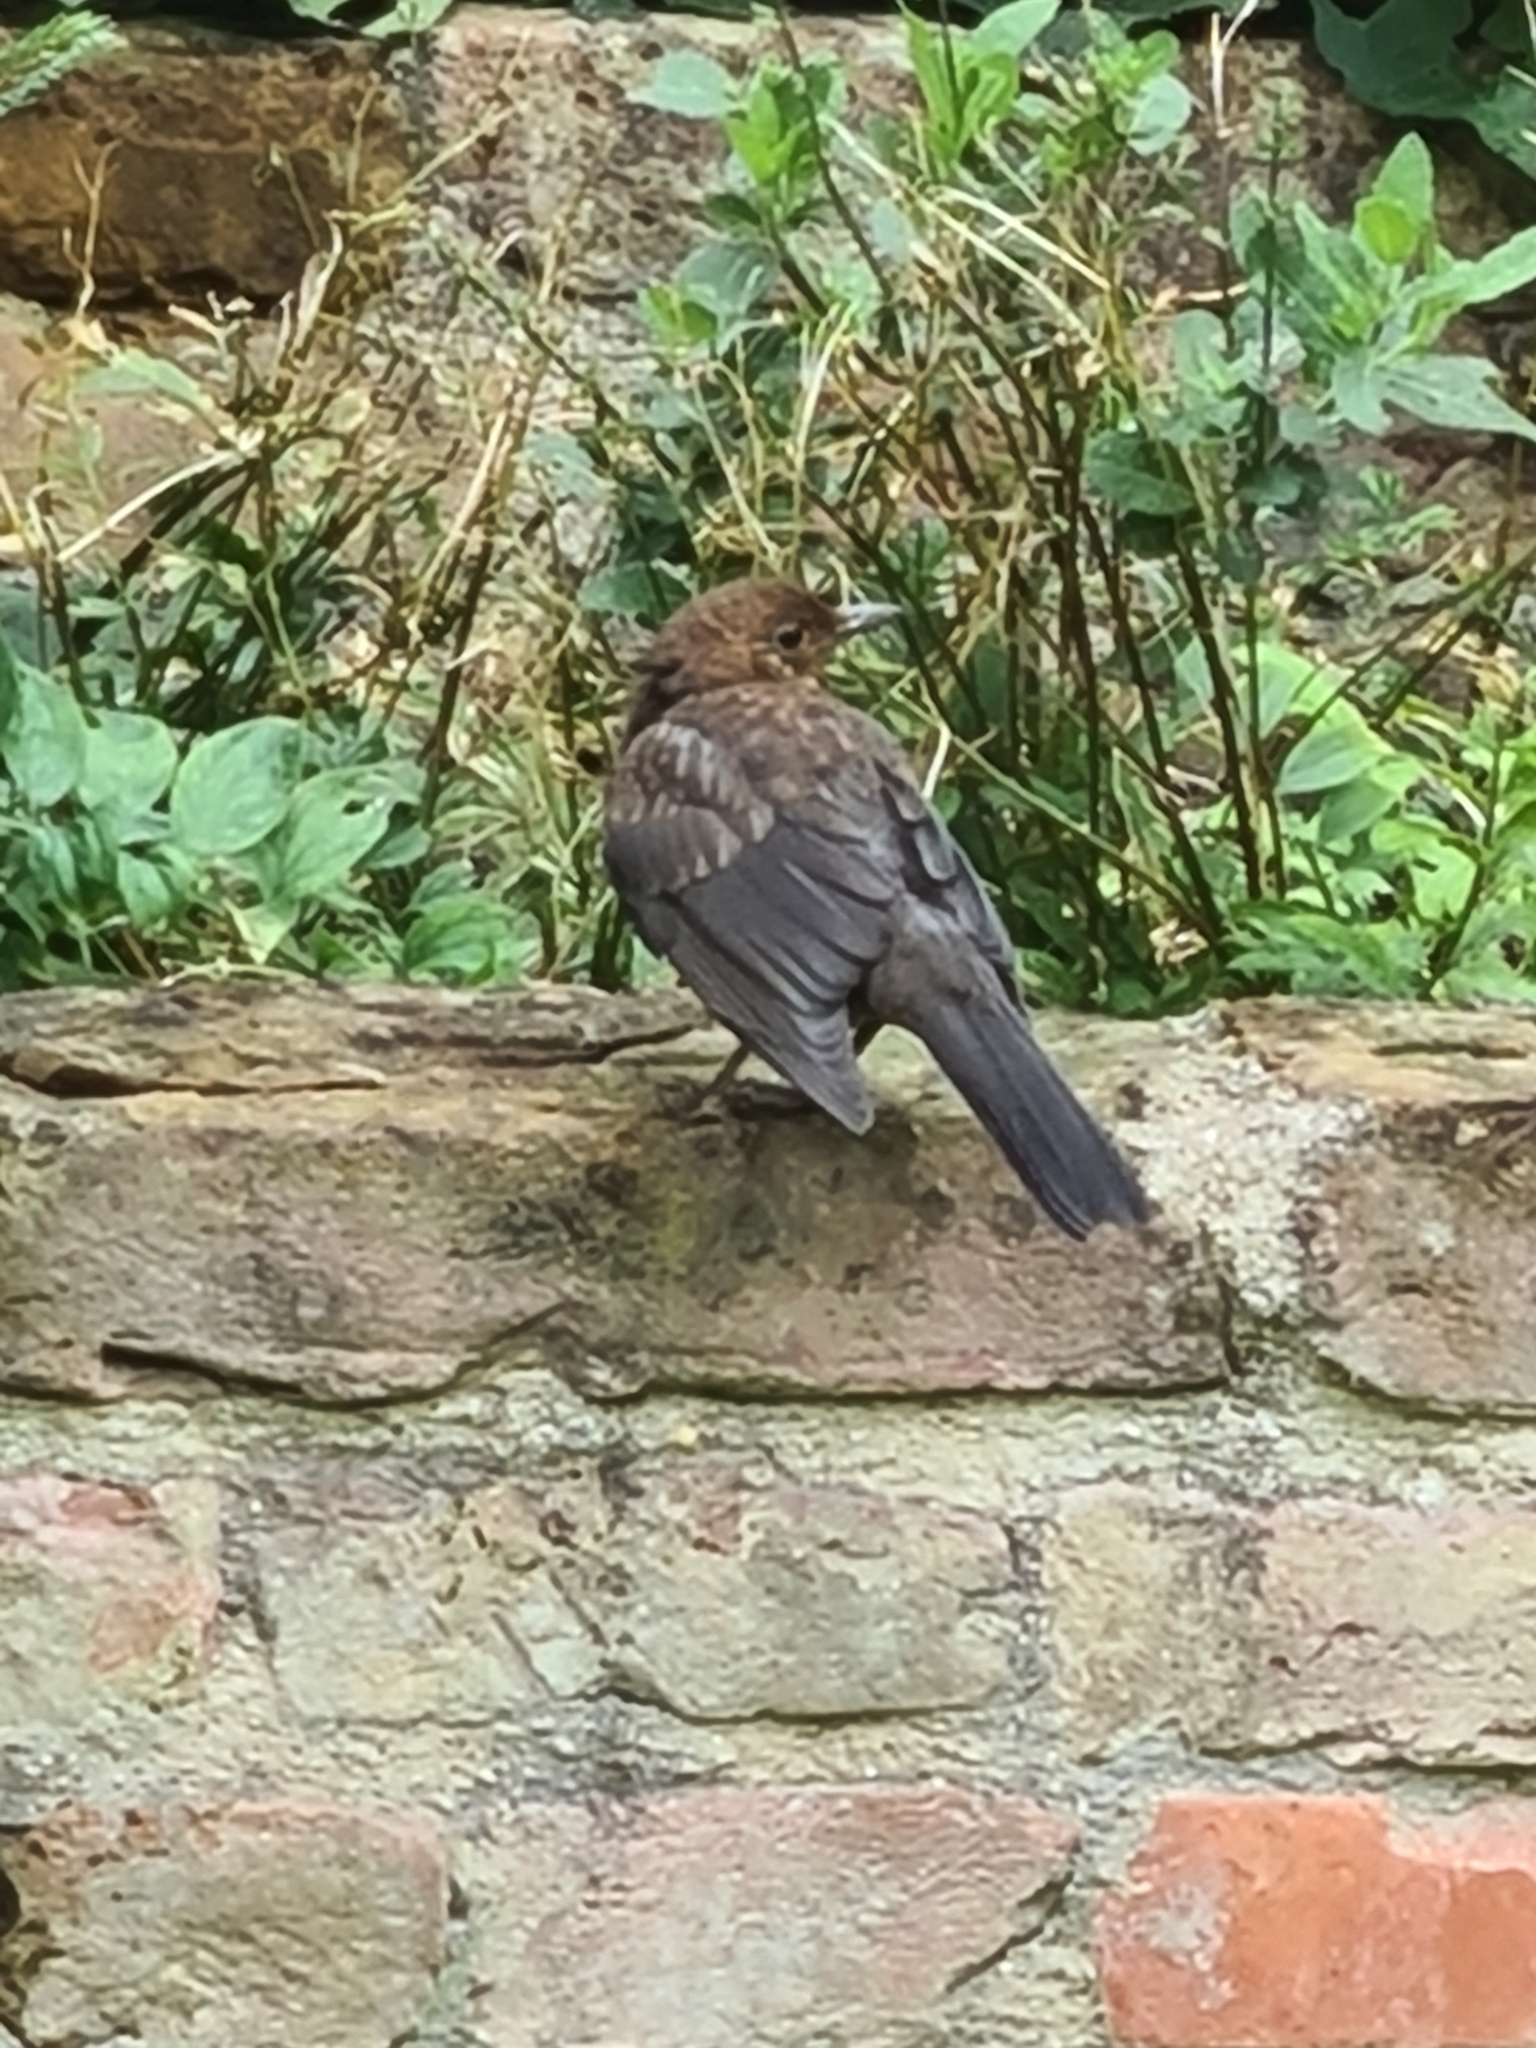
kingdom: Animalia
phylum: Chordata
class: Aves
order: Passeriformes
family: Turdidae
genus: Turdus
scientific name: Turdus merula
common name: Common blackbird
